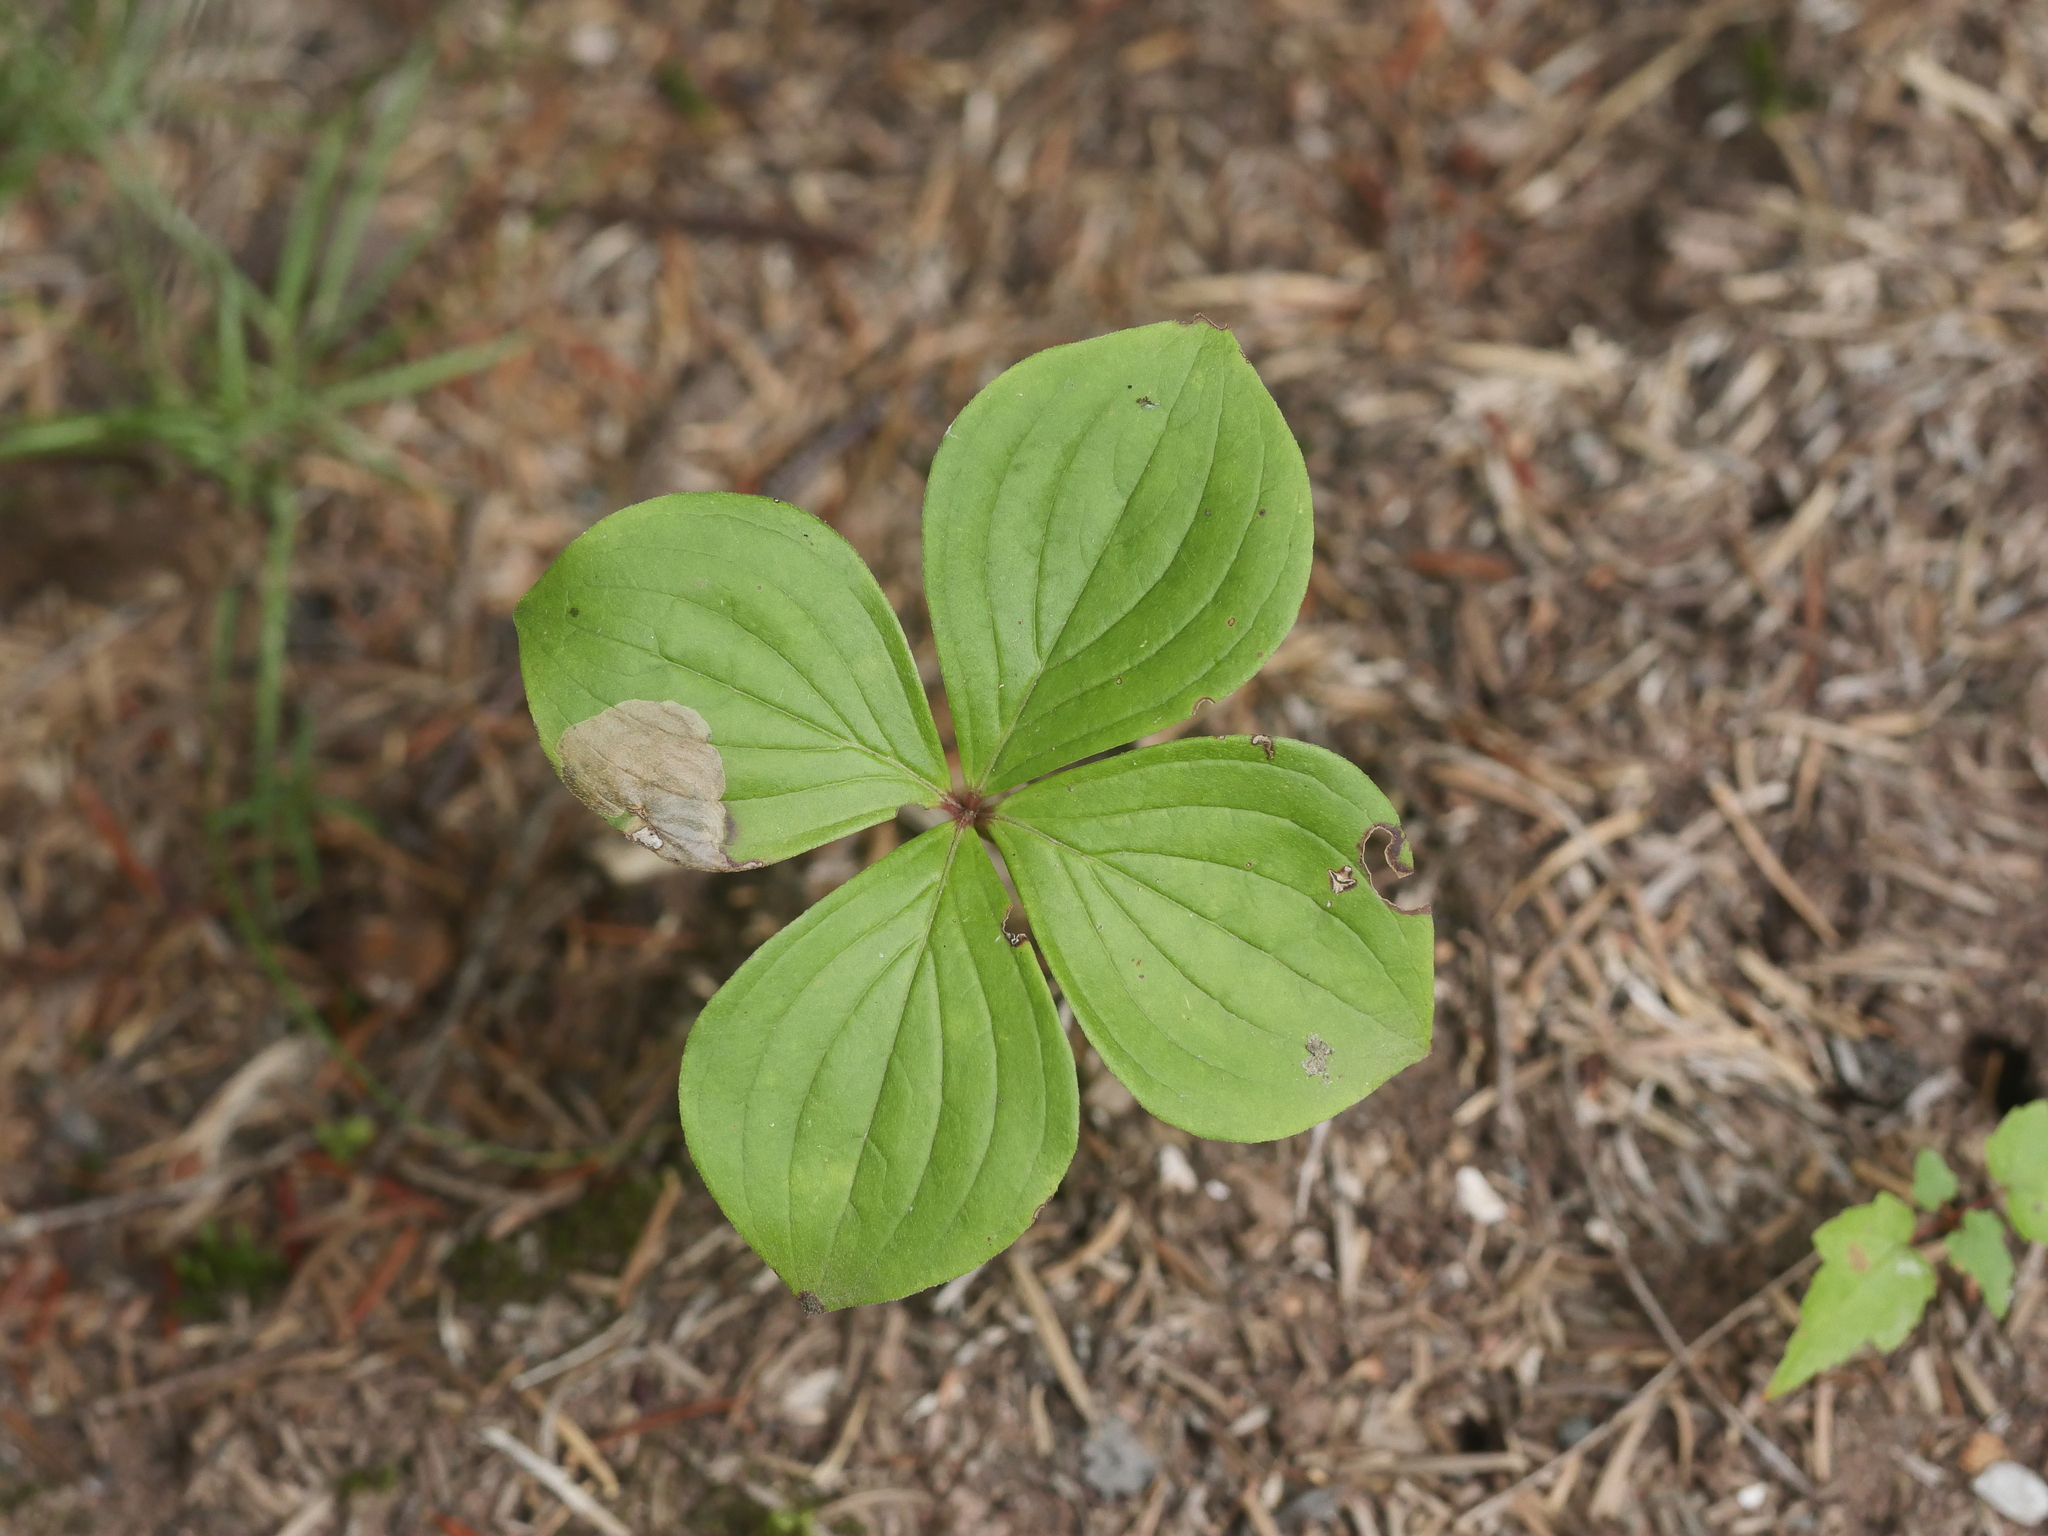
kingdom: Plantae
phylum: Tracheophyta
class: Magnoliopsida
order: Cornales
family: Cornaceae
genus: Cornus
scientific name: Cornus canadensis
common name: Creeping dogwood
